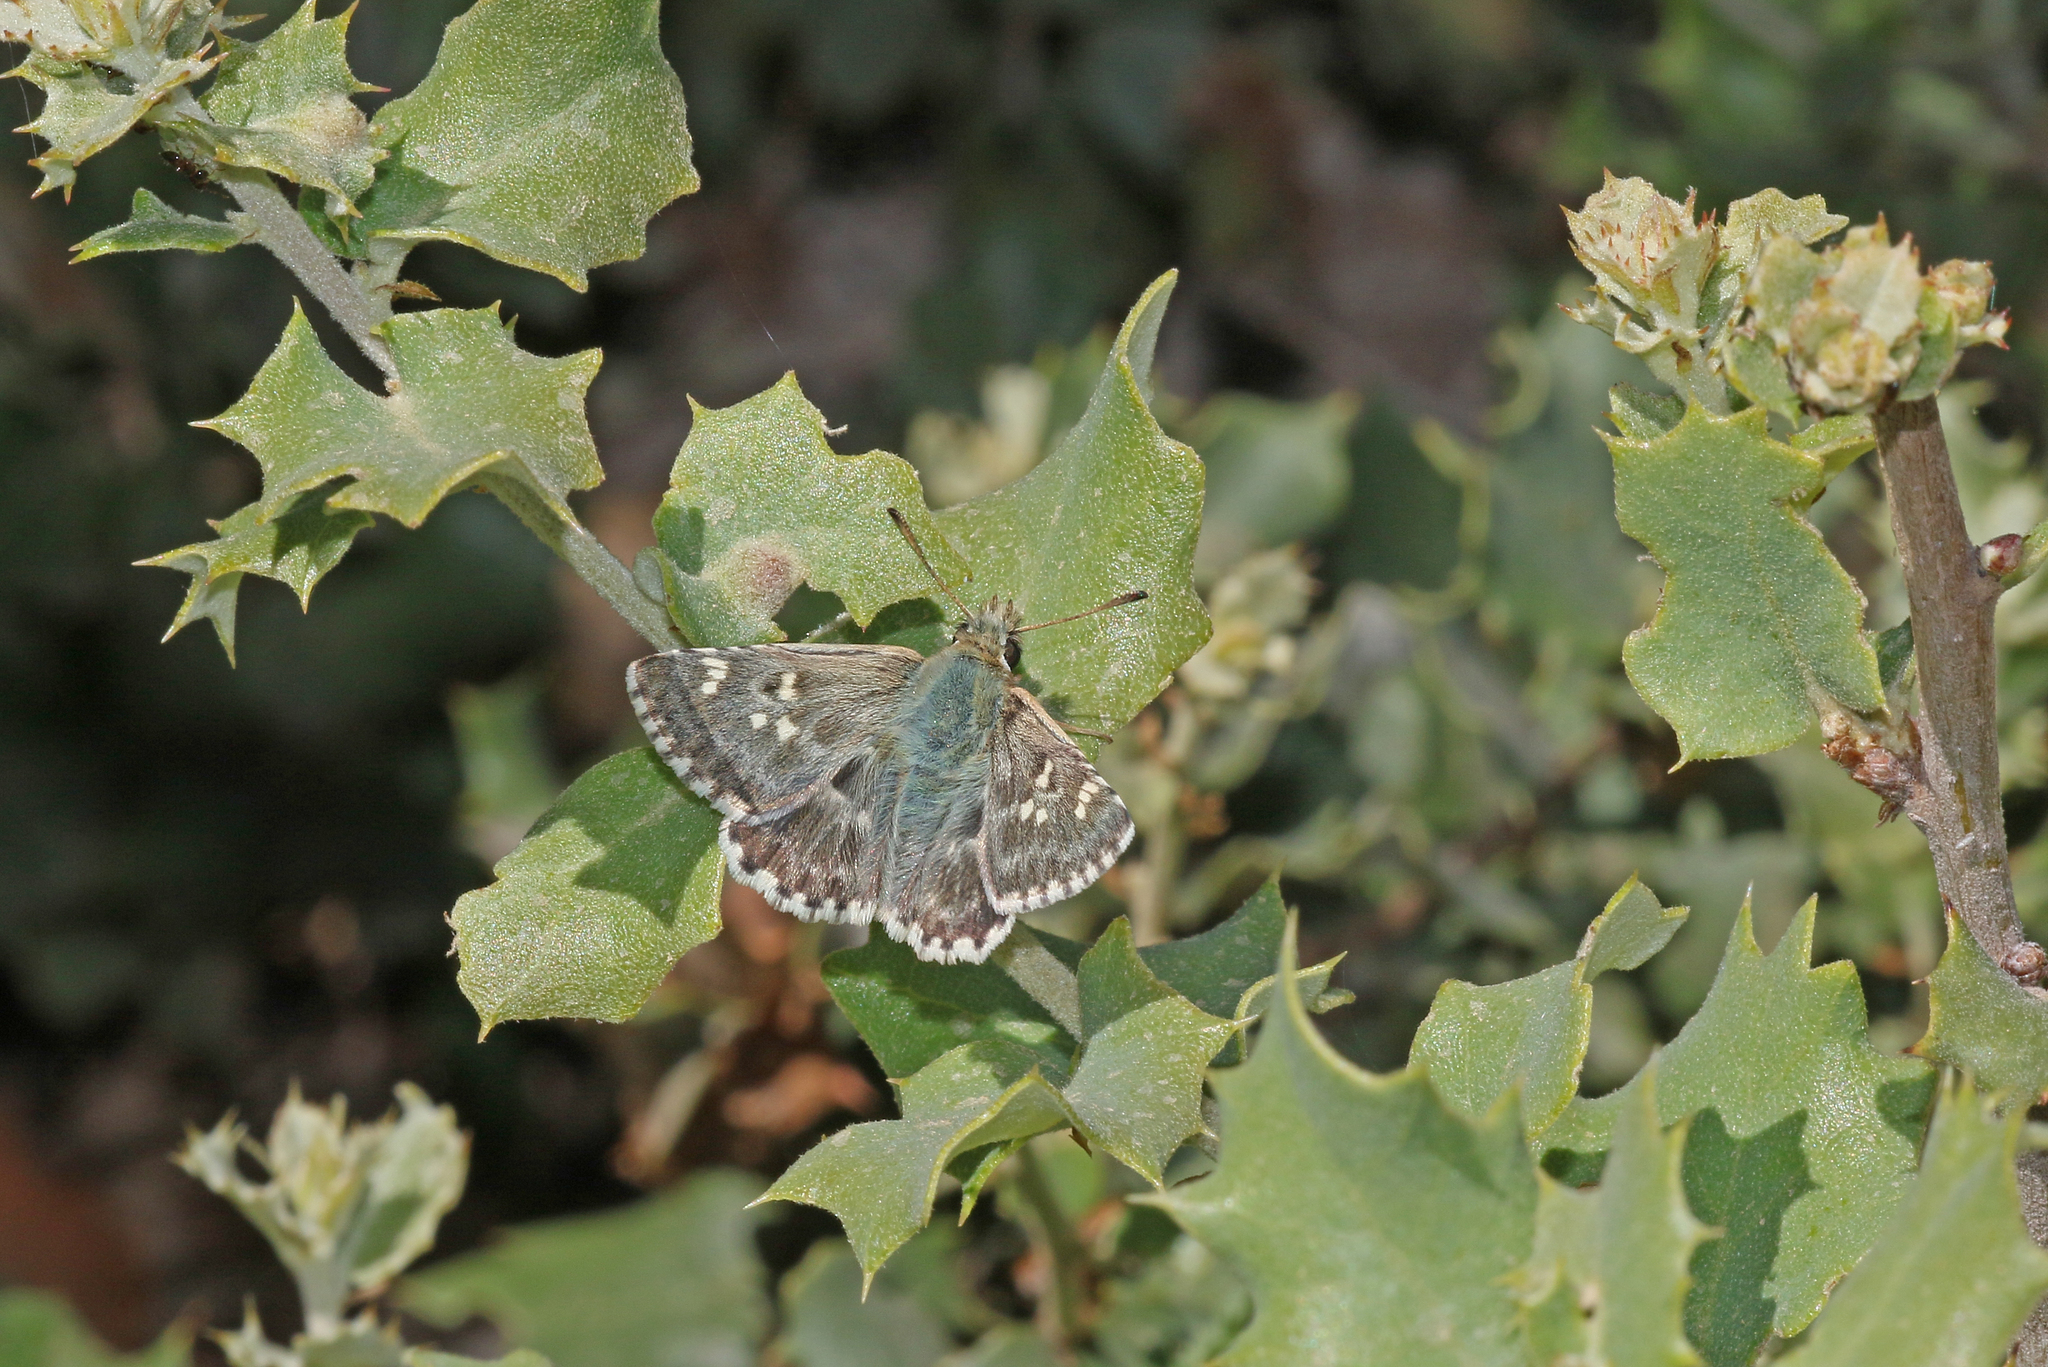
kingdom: Animalia
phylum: Arthropoda
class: Insecta
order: Lepidoptera
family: Hesperiidae
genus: Syrichtus
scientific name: Syrichtus Muschampia proto
